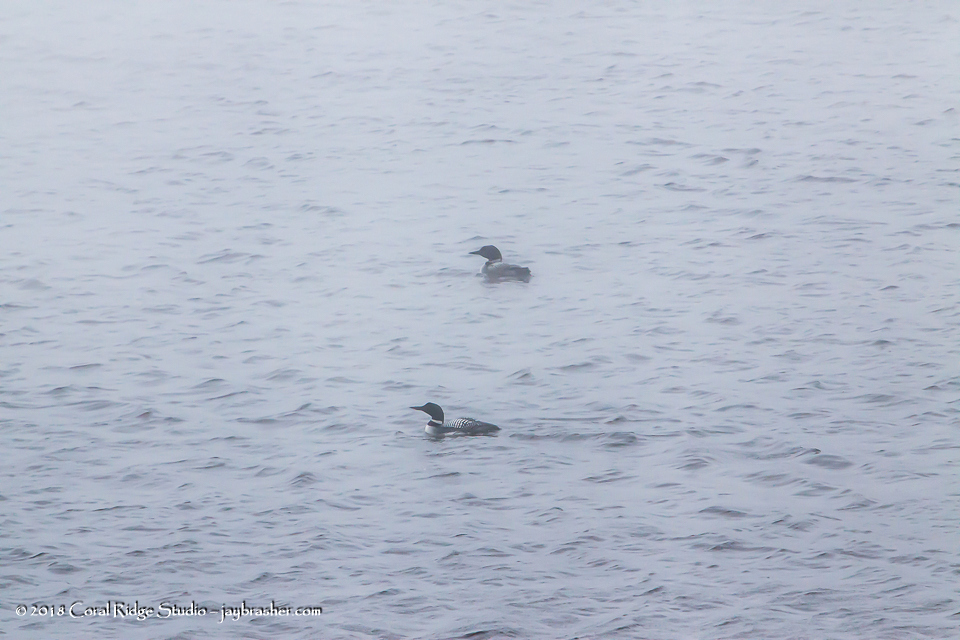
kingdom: Animalia
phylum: Chordata
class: Aves
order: Gaviiformes
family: Gaviidae
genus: Gavia
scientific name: Gavia immer
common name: Common loon
